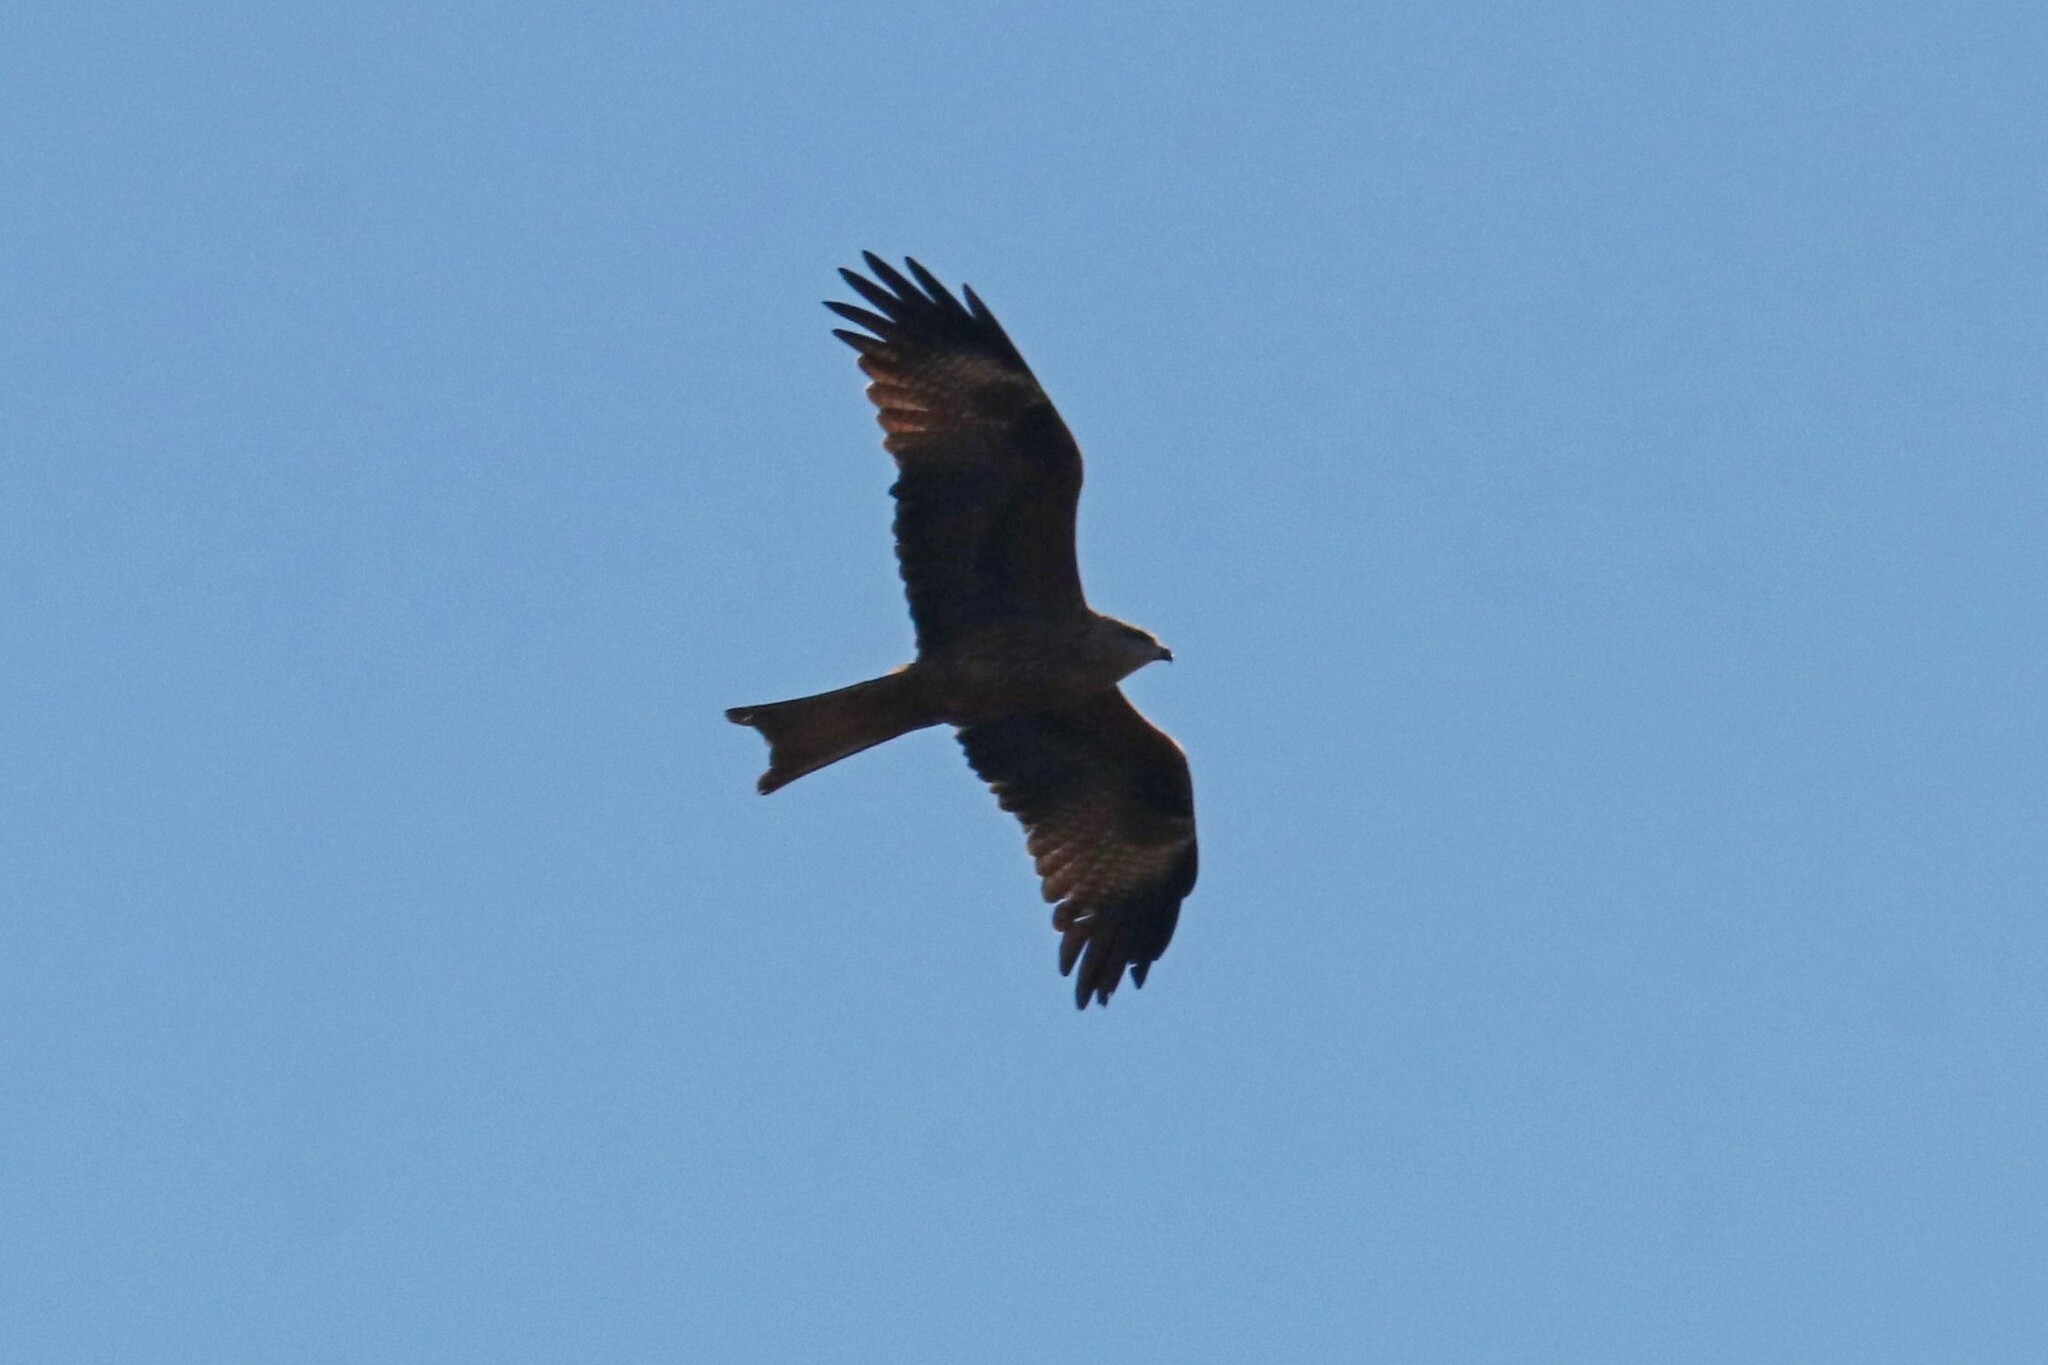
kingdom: Animalia
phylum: Chordata
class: Aves
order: Accipitriformes
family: Accipitridae
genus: Milvus
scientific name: Milvus migrans
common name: Black kite
